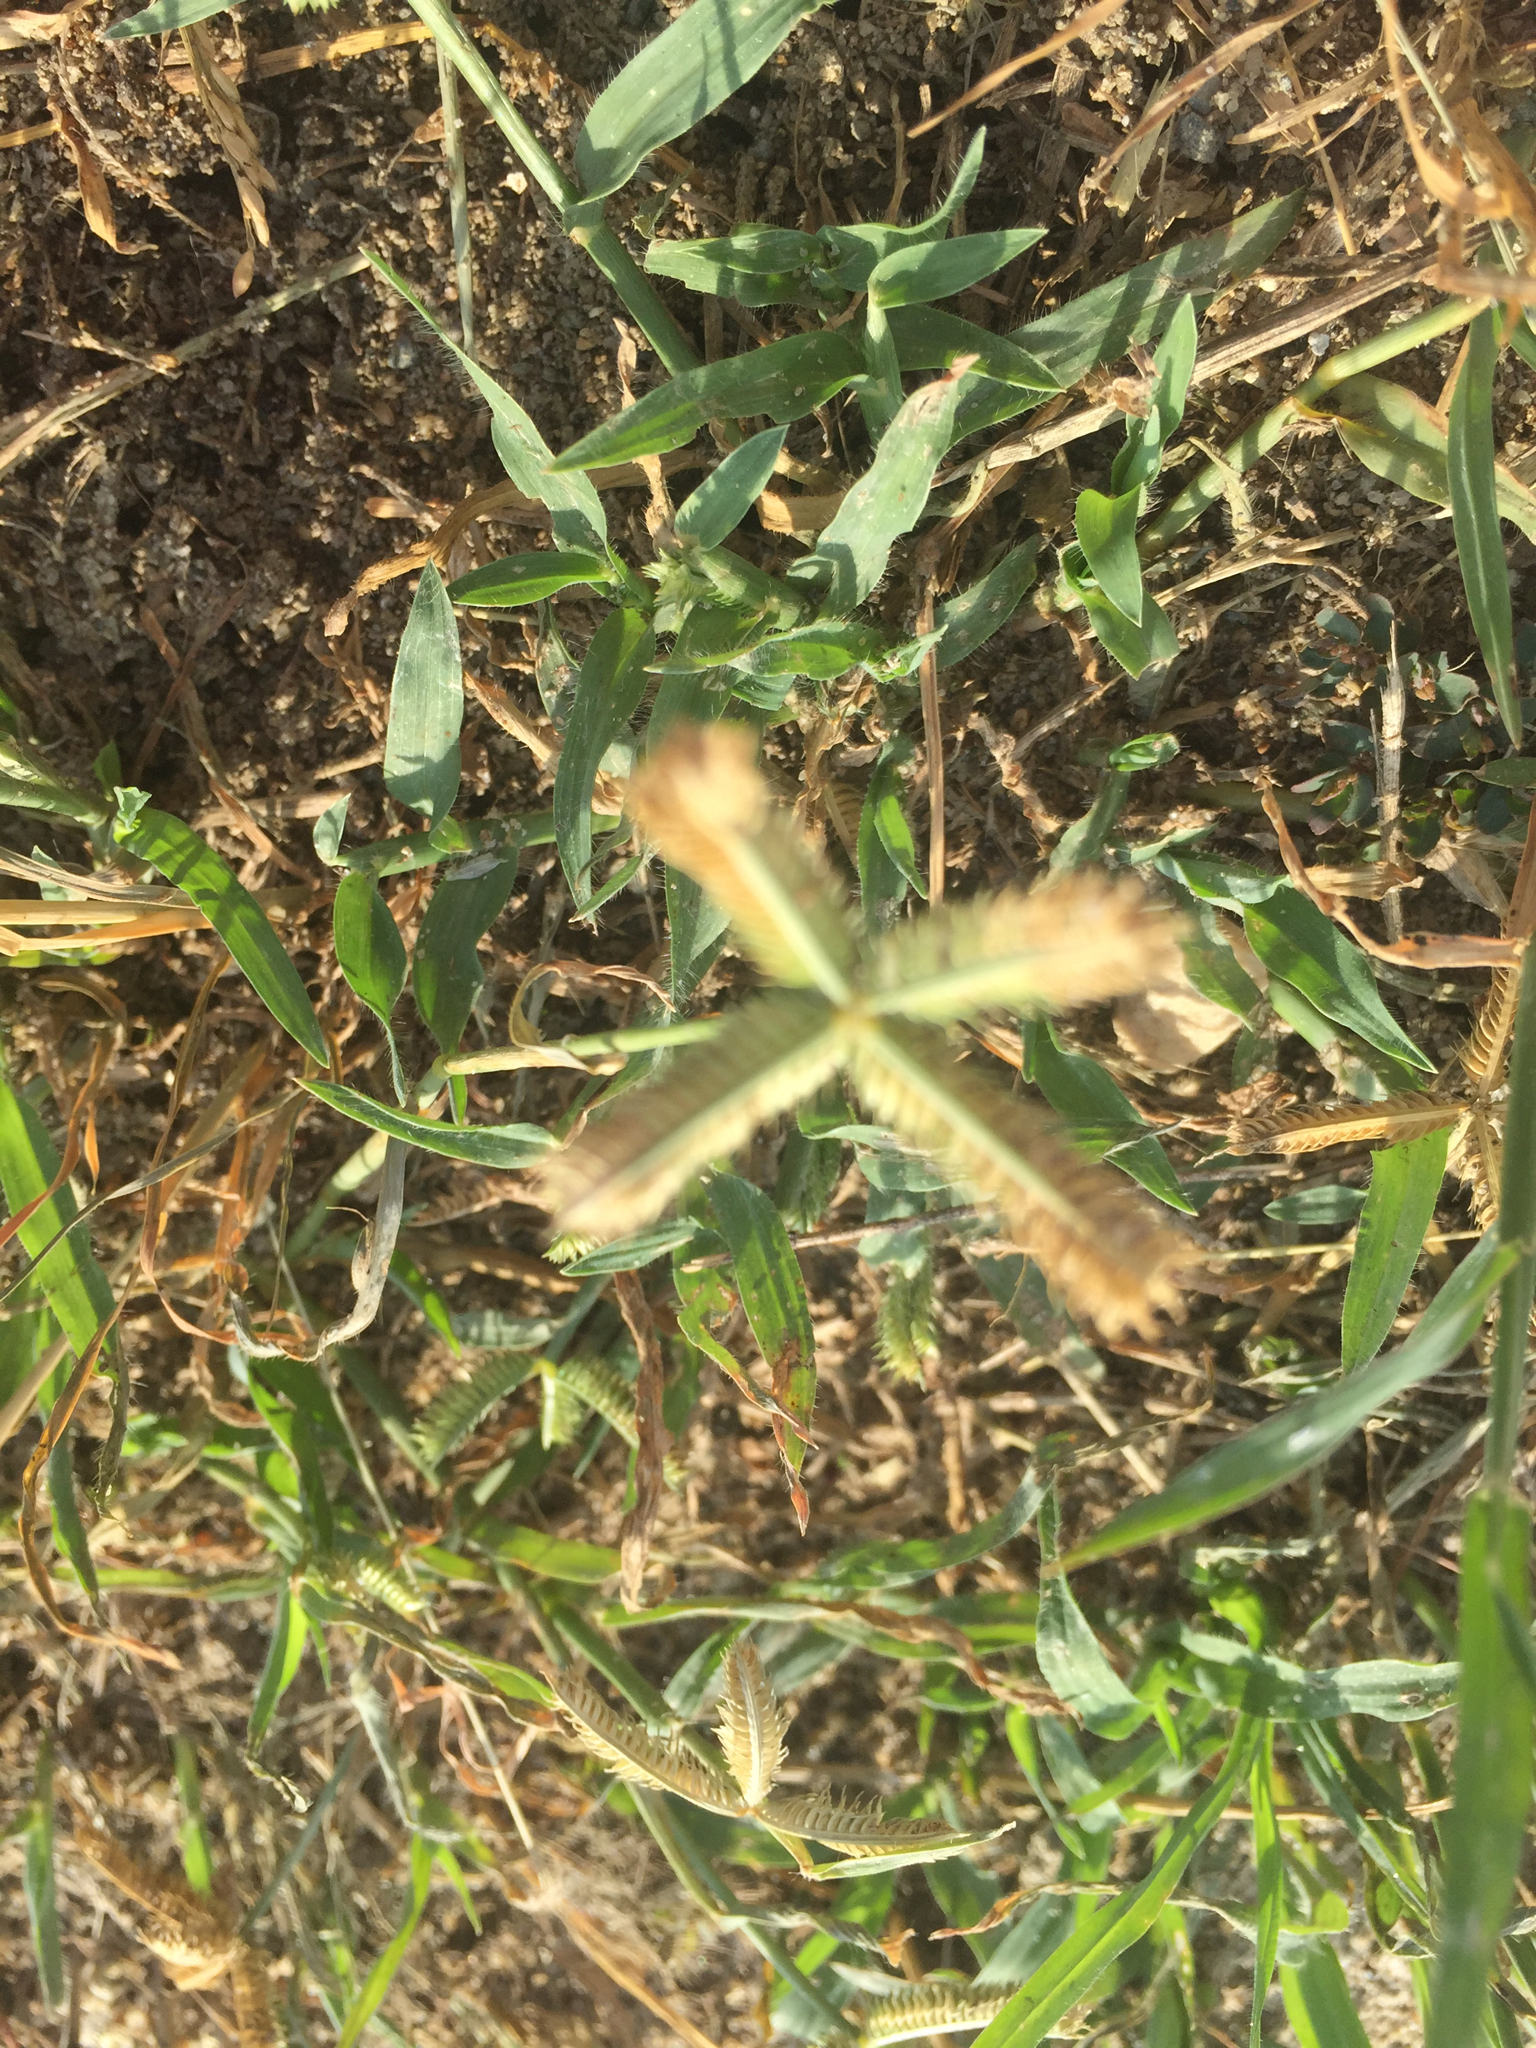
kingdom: Plantae
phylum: Tracheophyta
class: Liliopsida
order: Poales
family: Poaceae
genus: Dactyloctenium
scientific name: Dactyloctenium aegyptium
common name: Egyptian grass
